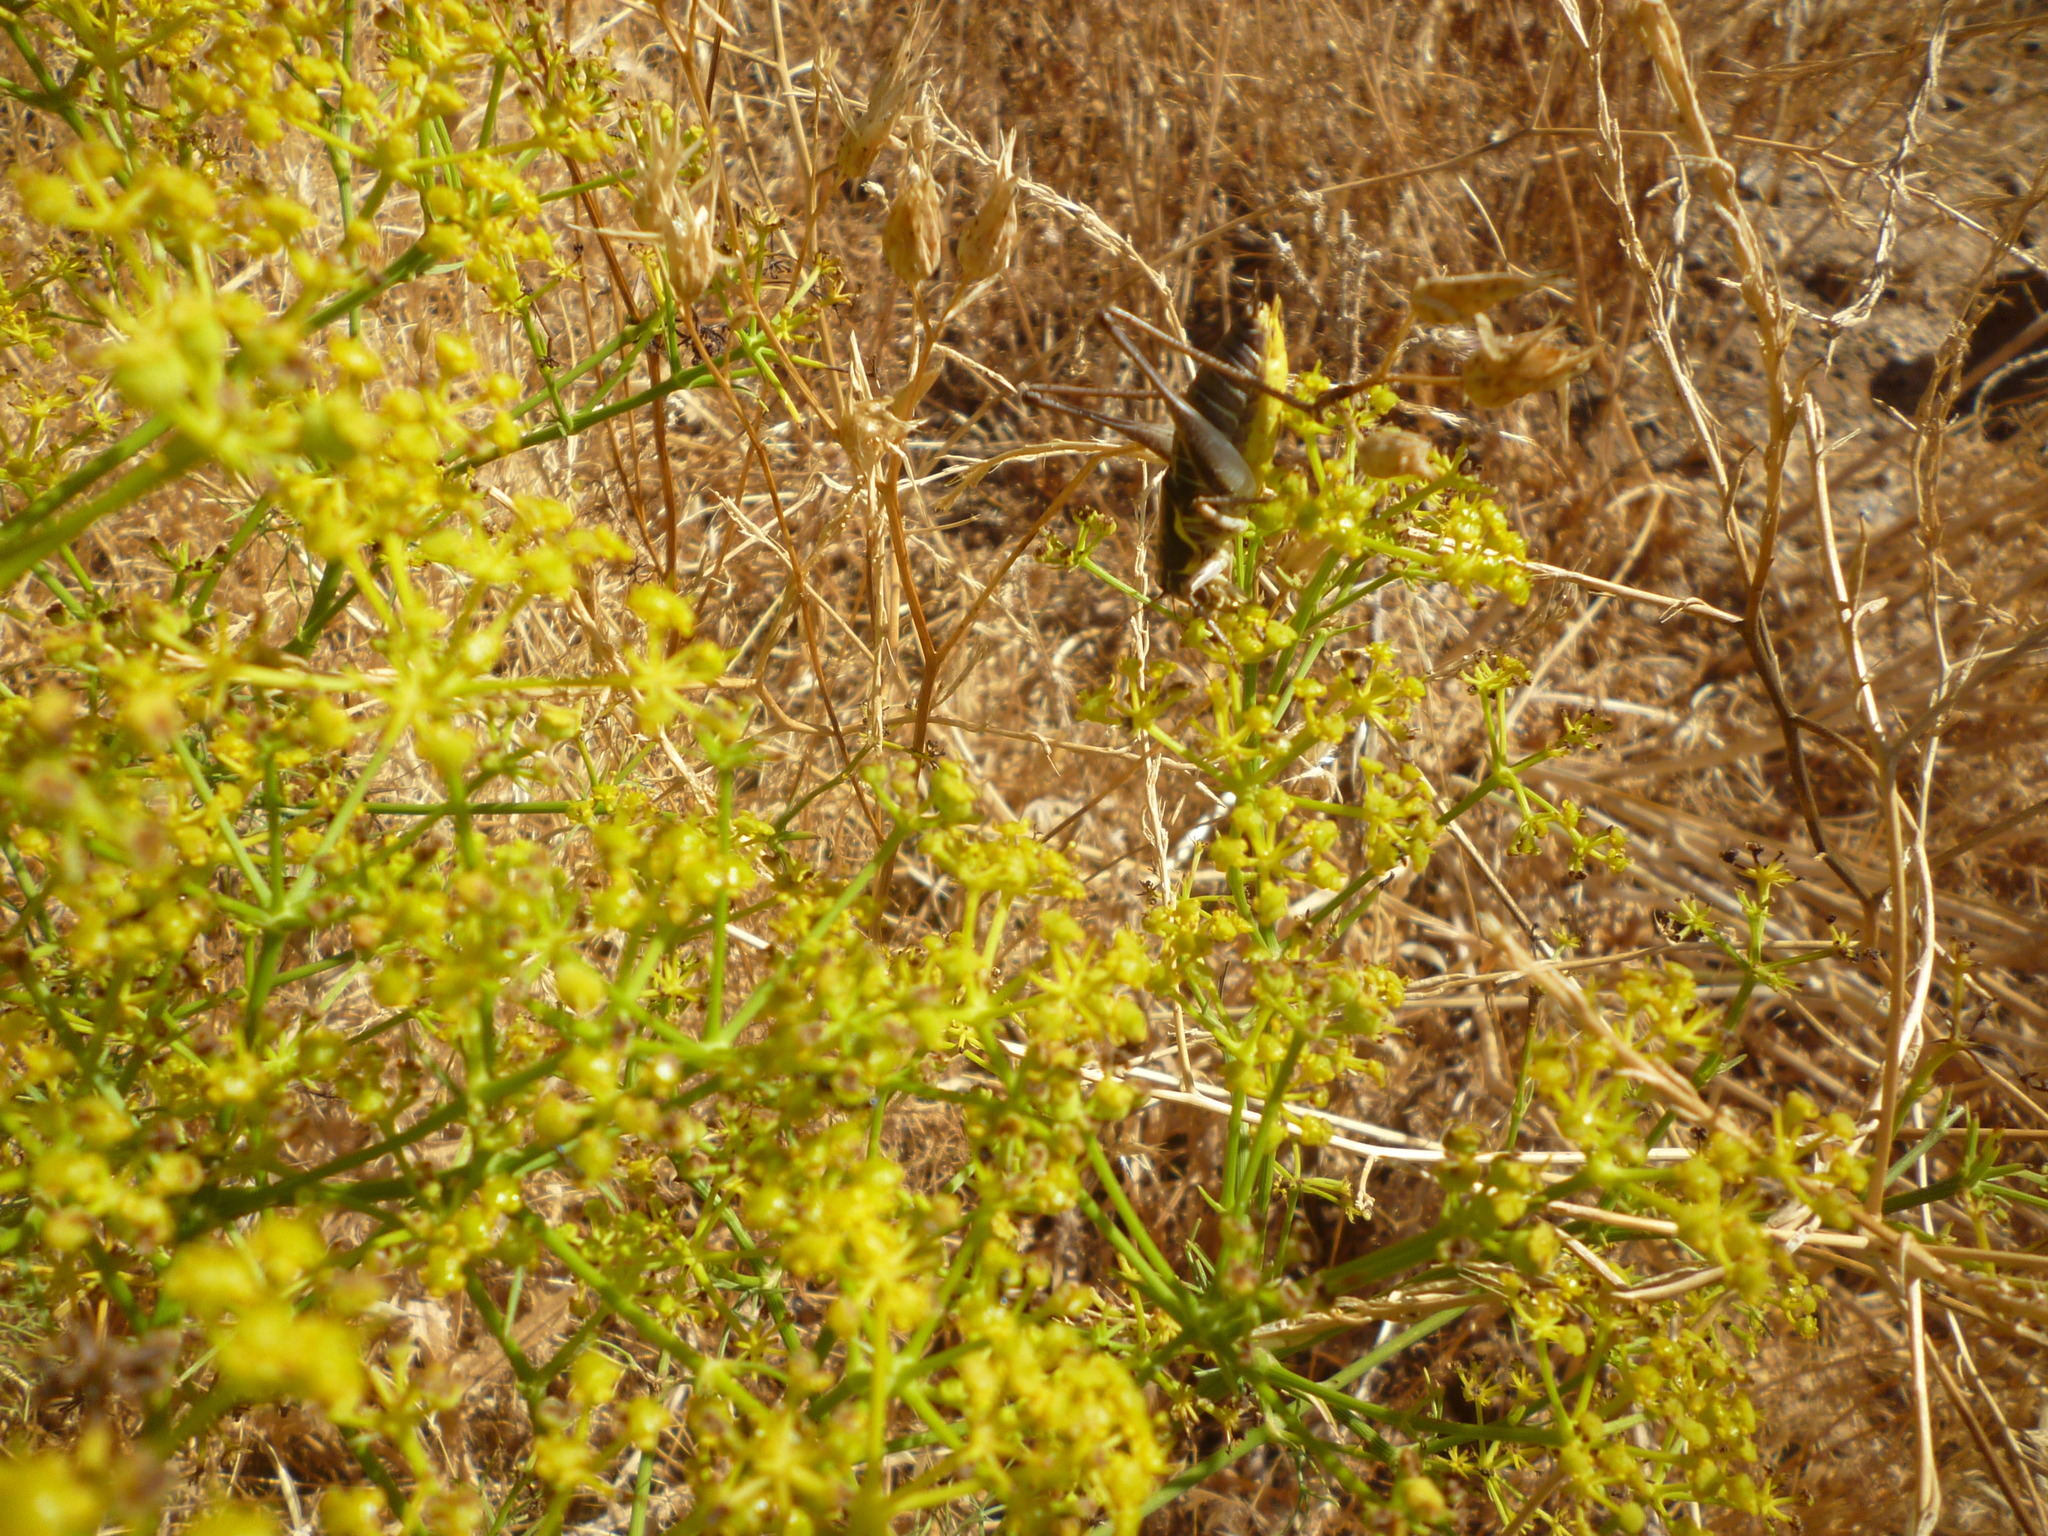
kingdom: Animalia
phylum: Arthropoda
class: Insecta
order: Orthoptera
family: Tettigoniidae
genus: Eupholidoptera
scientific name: Eupholidoptera lyra
